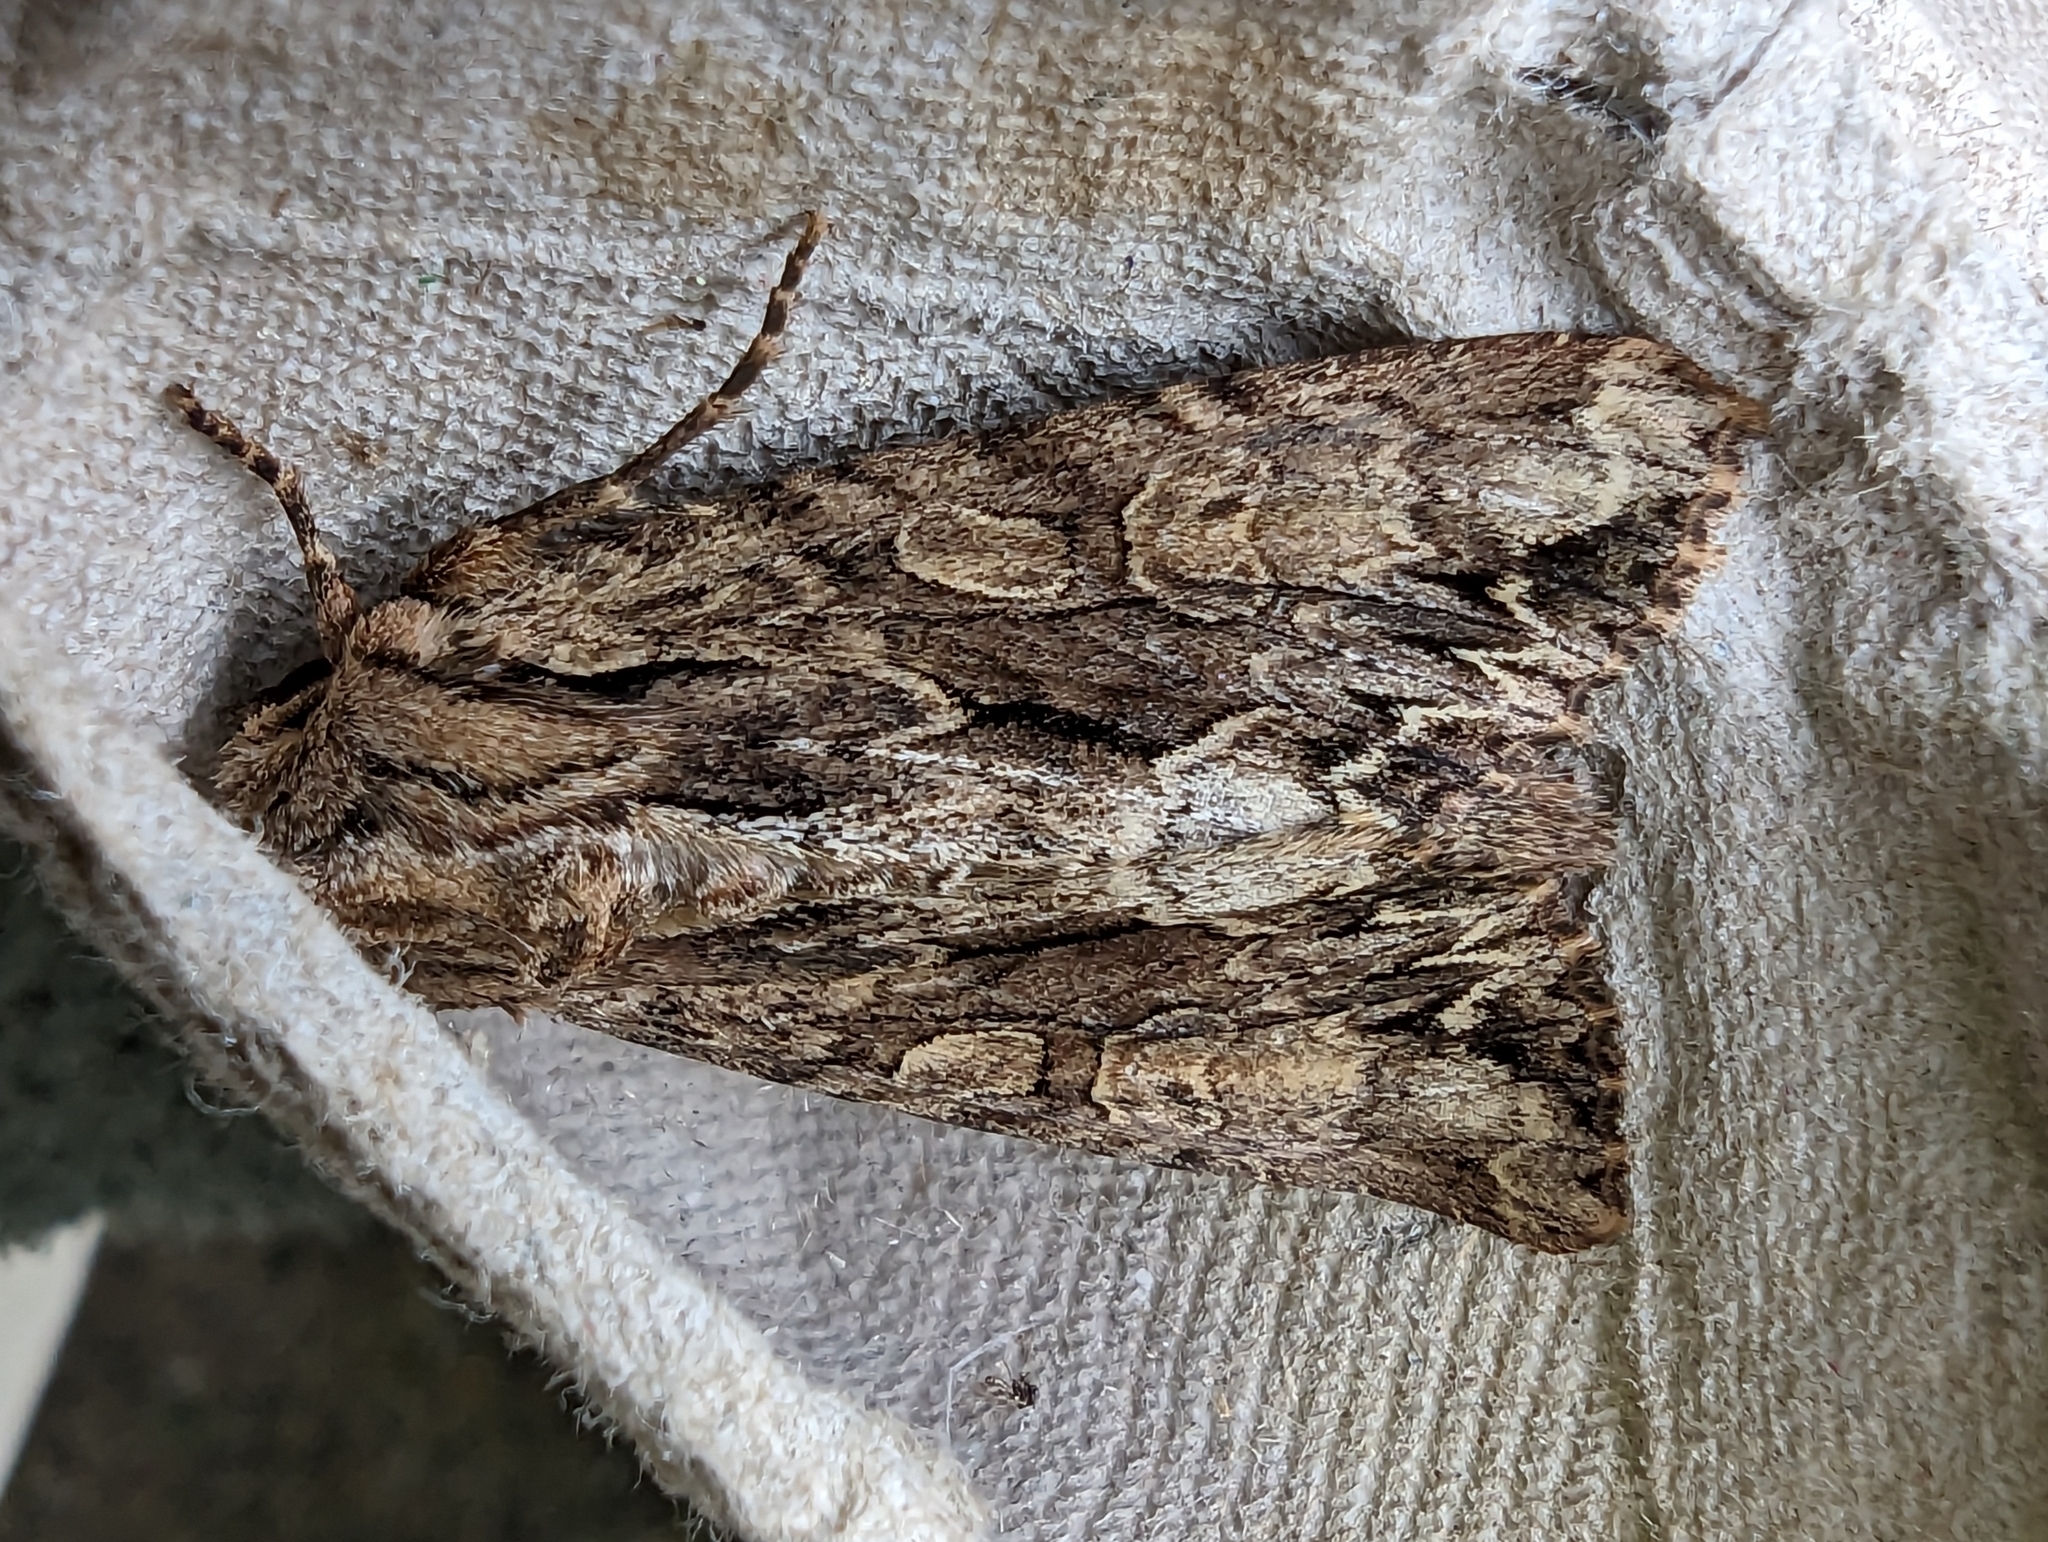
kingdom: Animalia
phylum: Arthropoda
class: Insecta
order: Lepidoptera
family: Noctuidae
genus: Apamea
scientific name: Apamea monoglypha
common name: Dark arches
